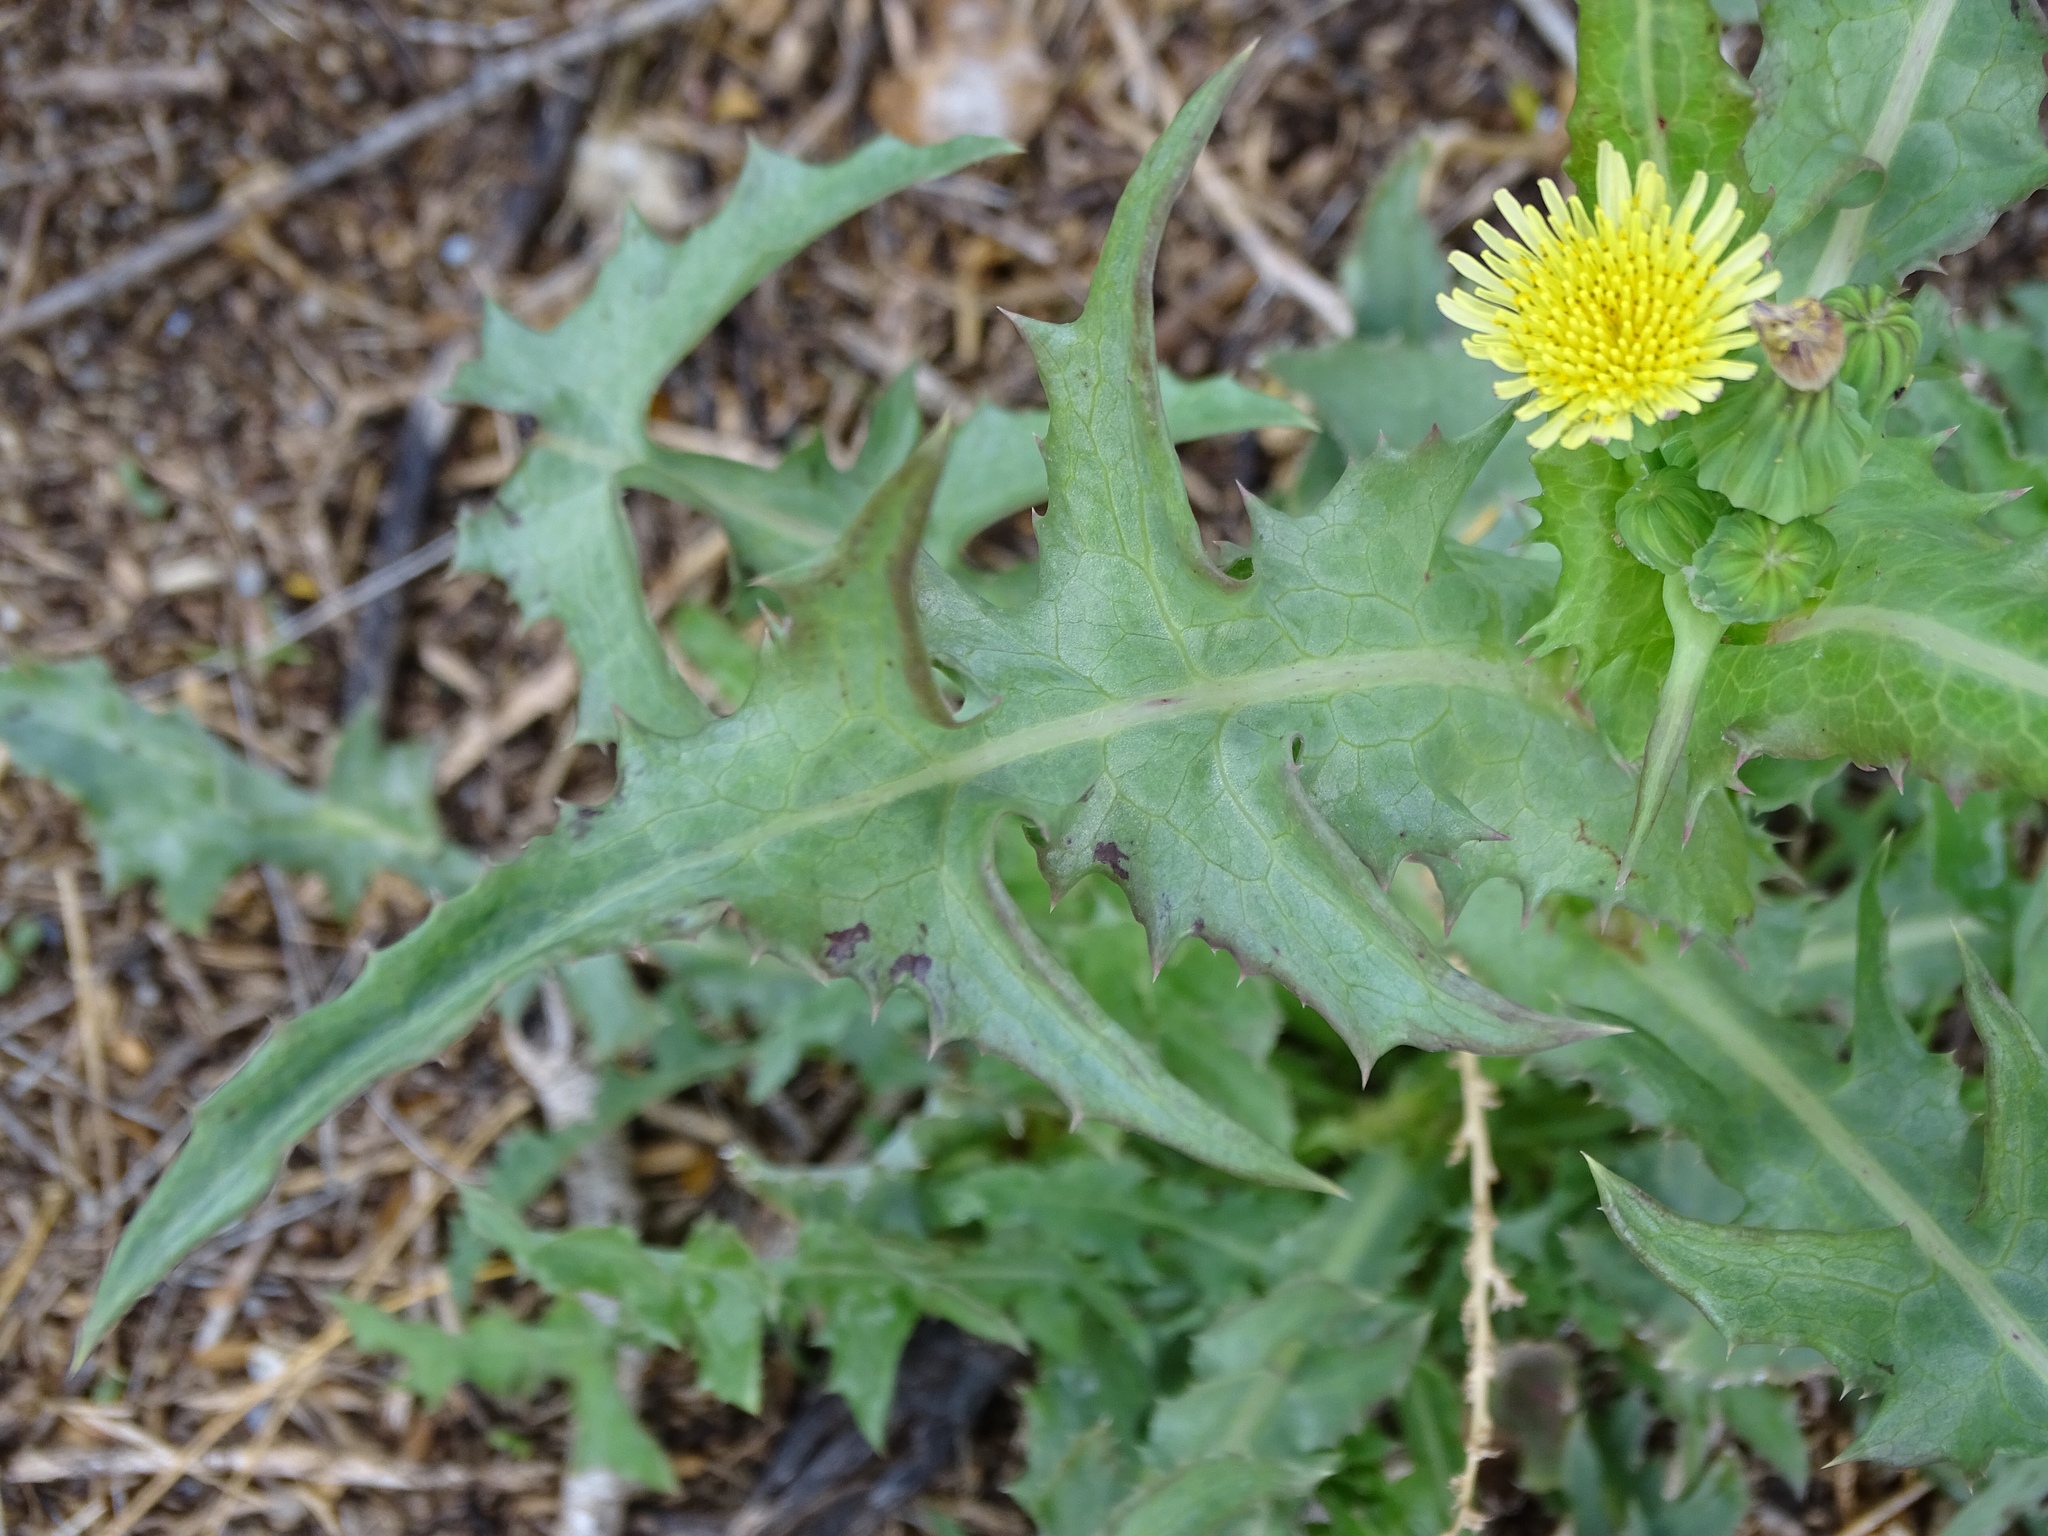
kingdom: Plantae
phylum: Tracheophyta
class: Magnoliopsida
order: Asterales
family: Asteraceae
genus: Sonchus
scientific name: Sonchus oleraceus
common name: Common sowthistle
